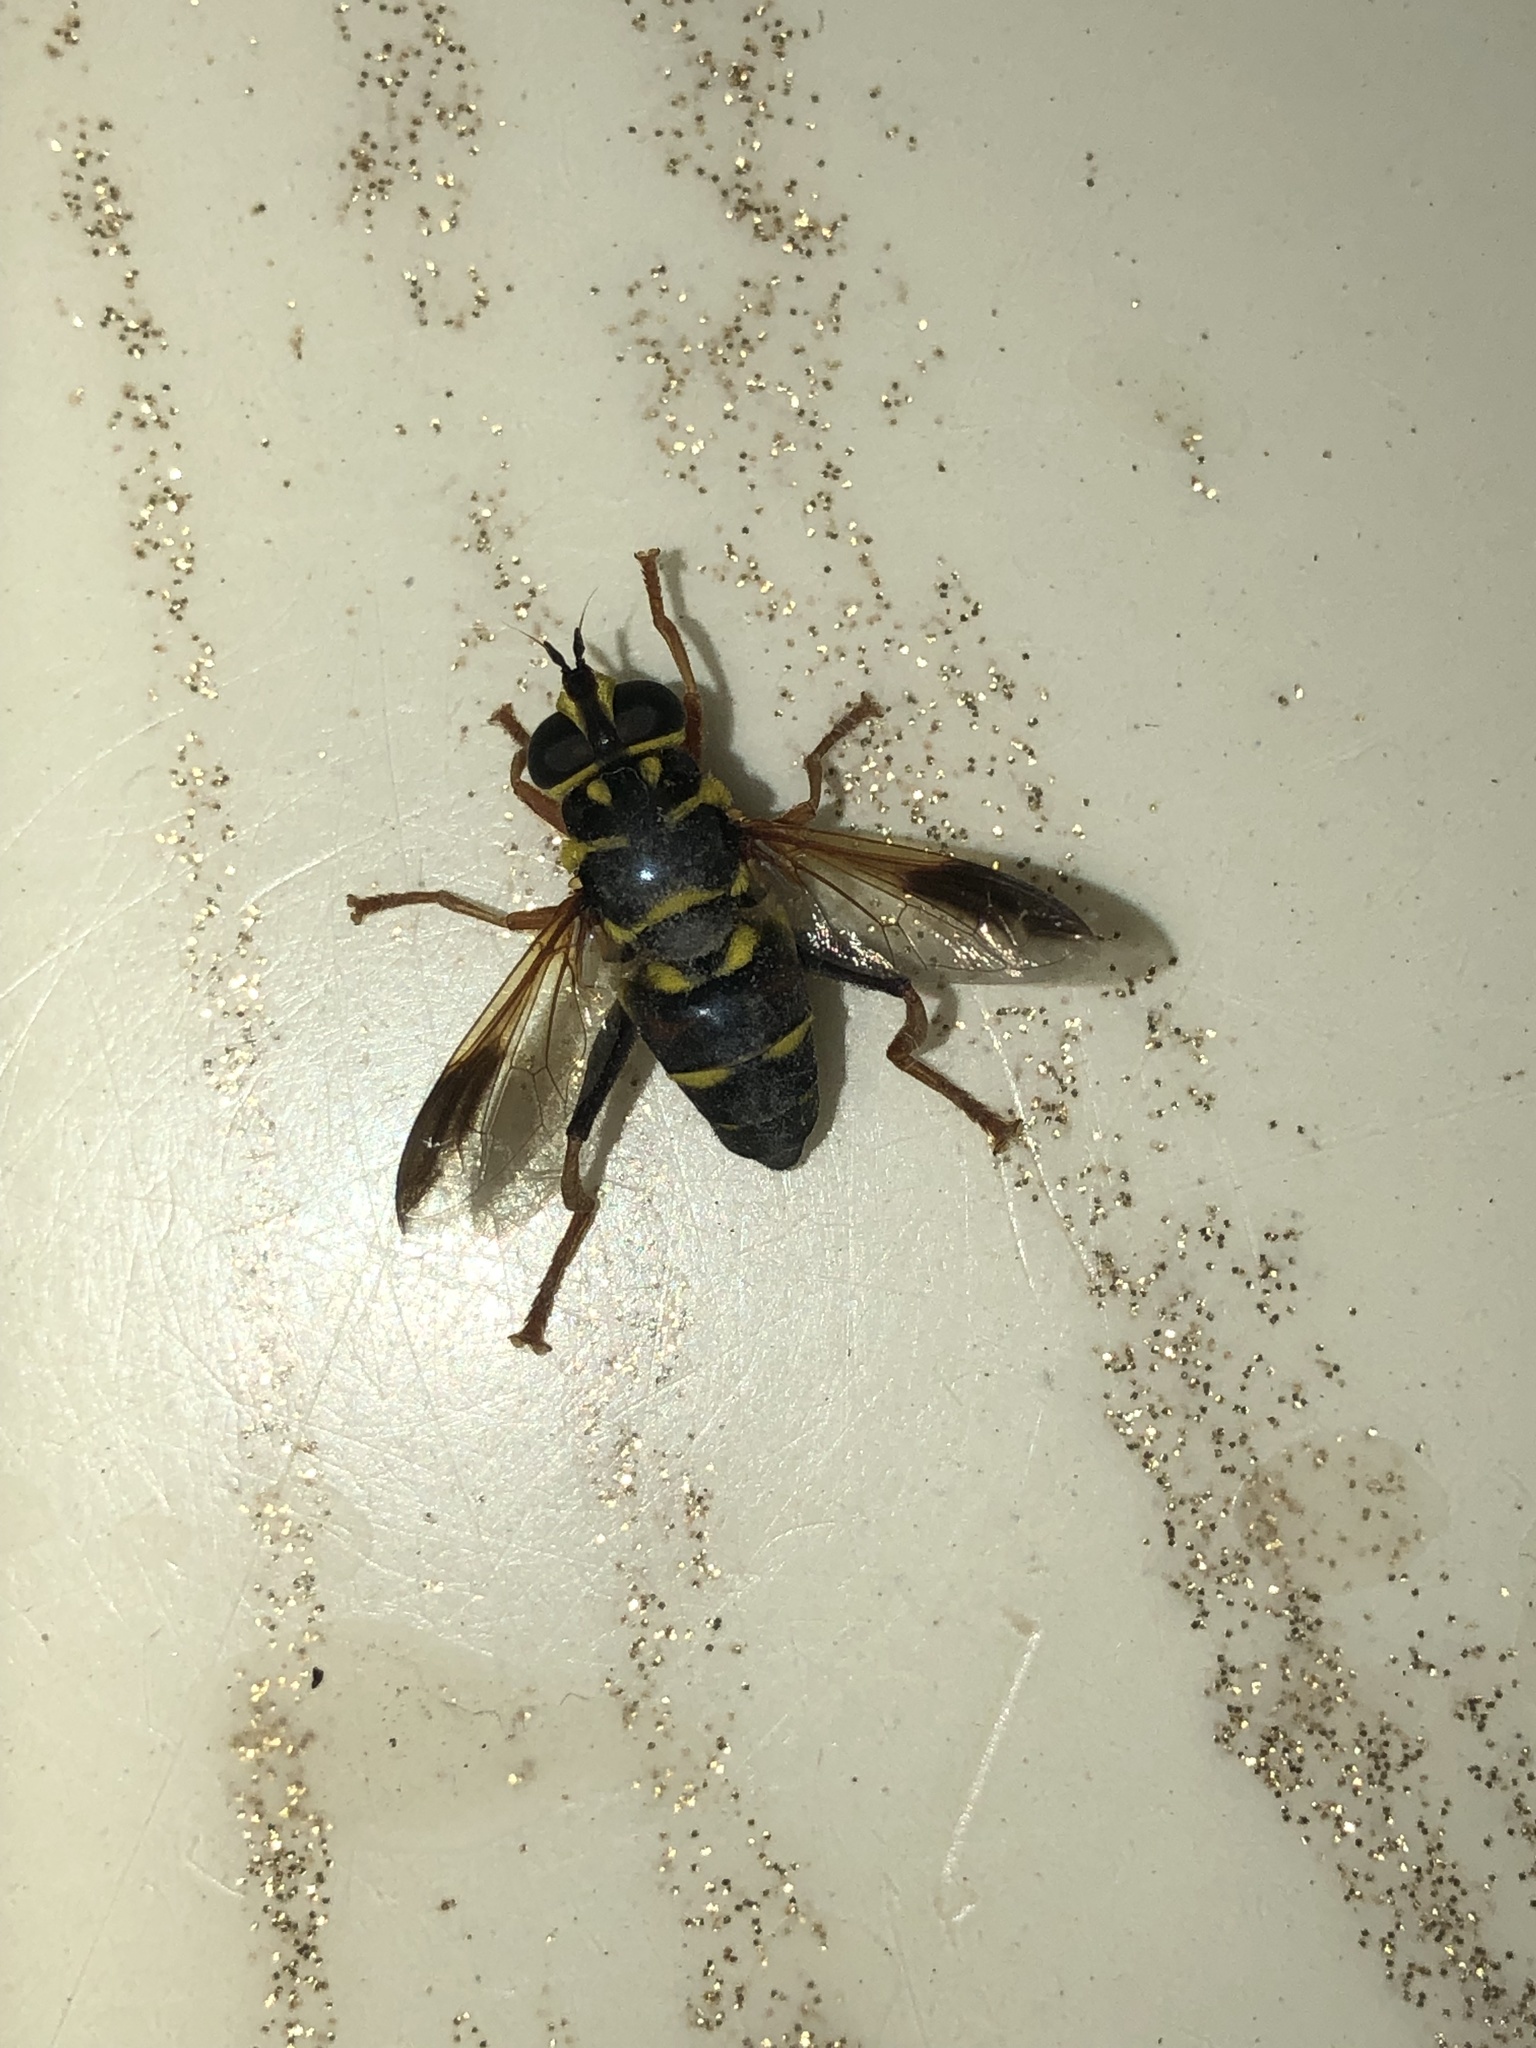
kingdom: Animalia
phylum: Arthropoda
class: Insecta
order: Diptera
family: Syrphidae
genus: Meromacrus
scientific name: Meromacrus acutus
